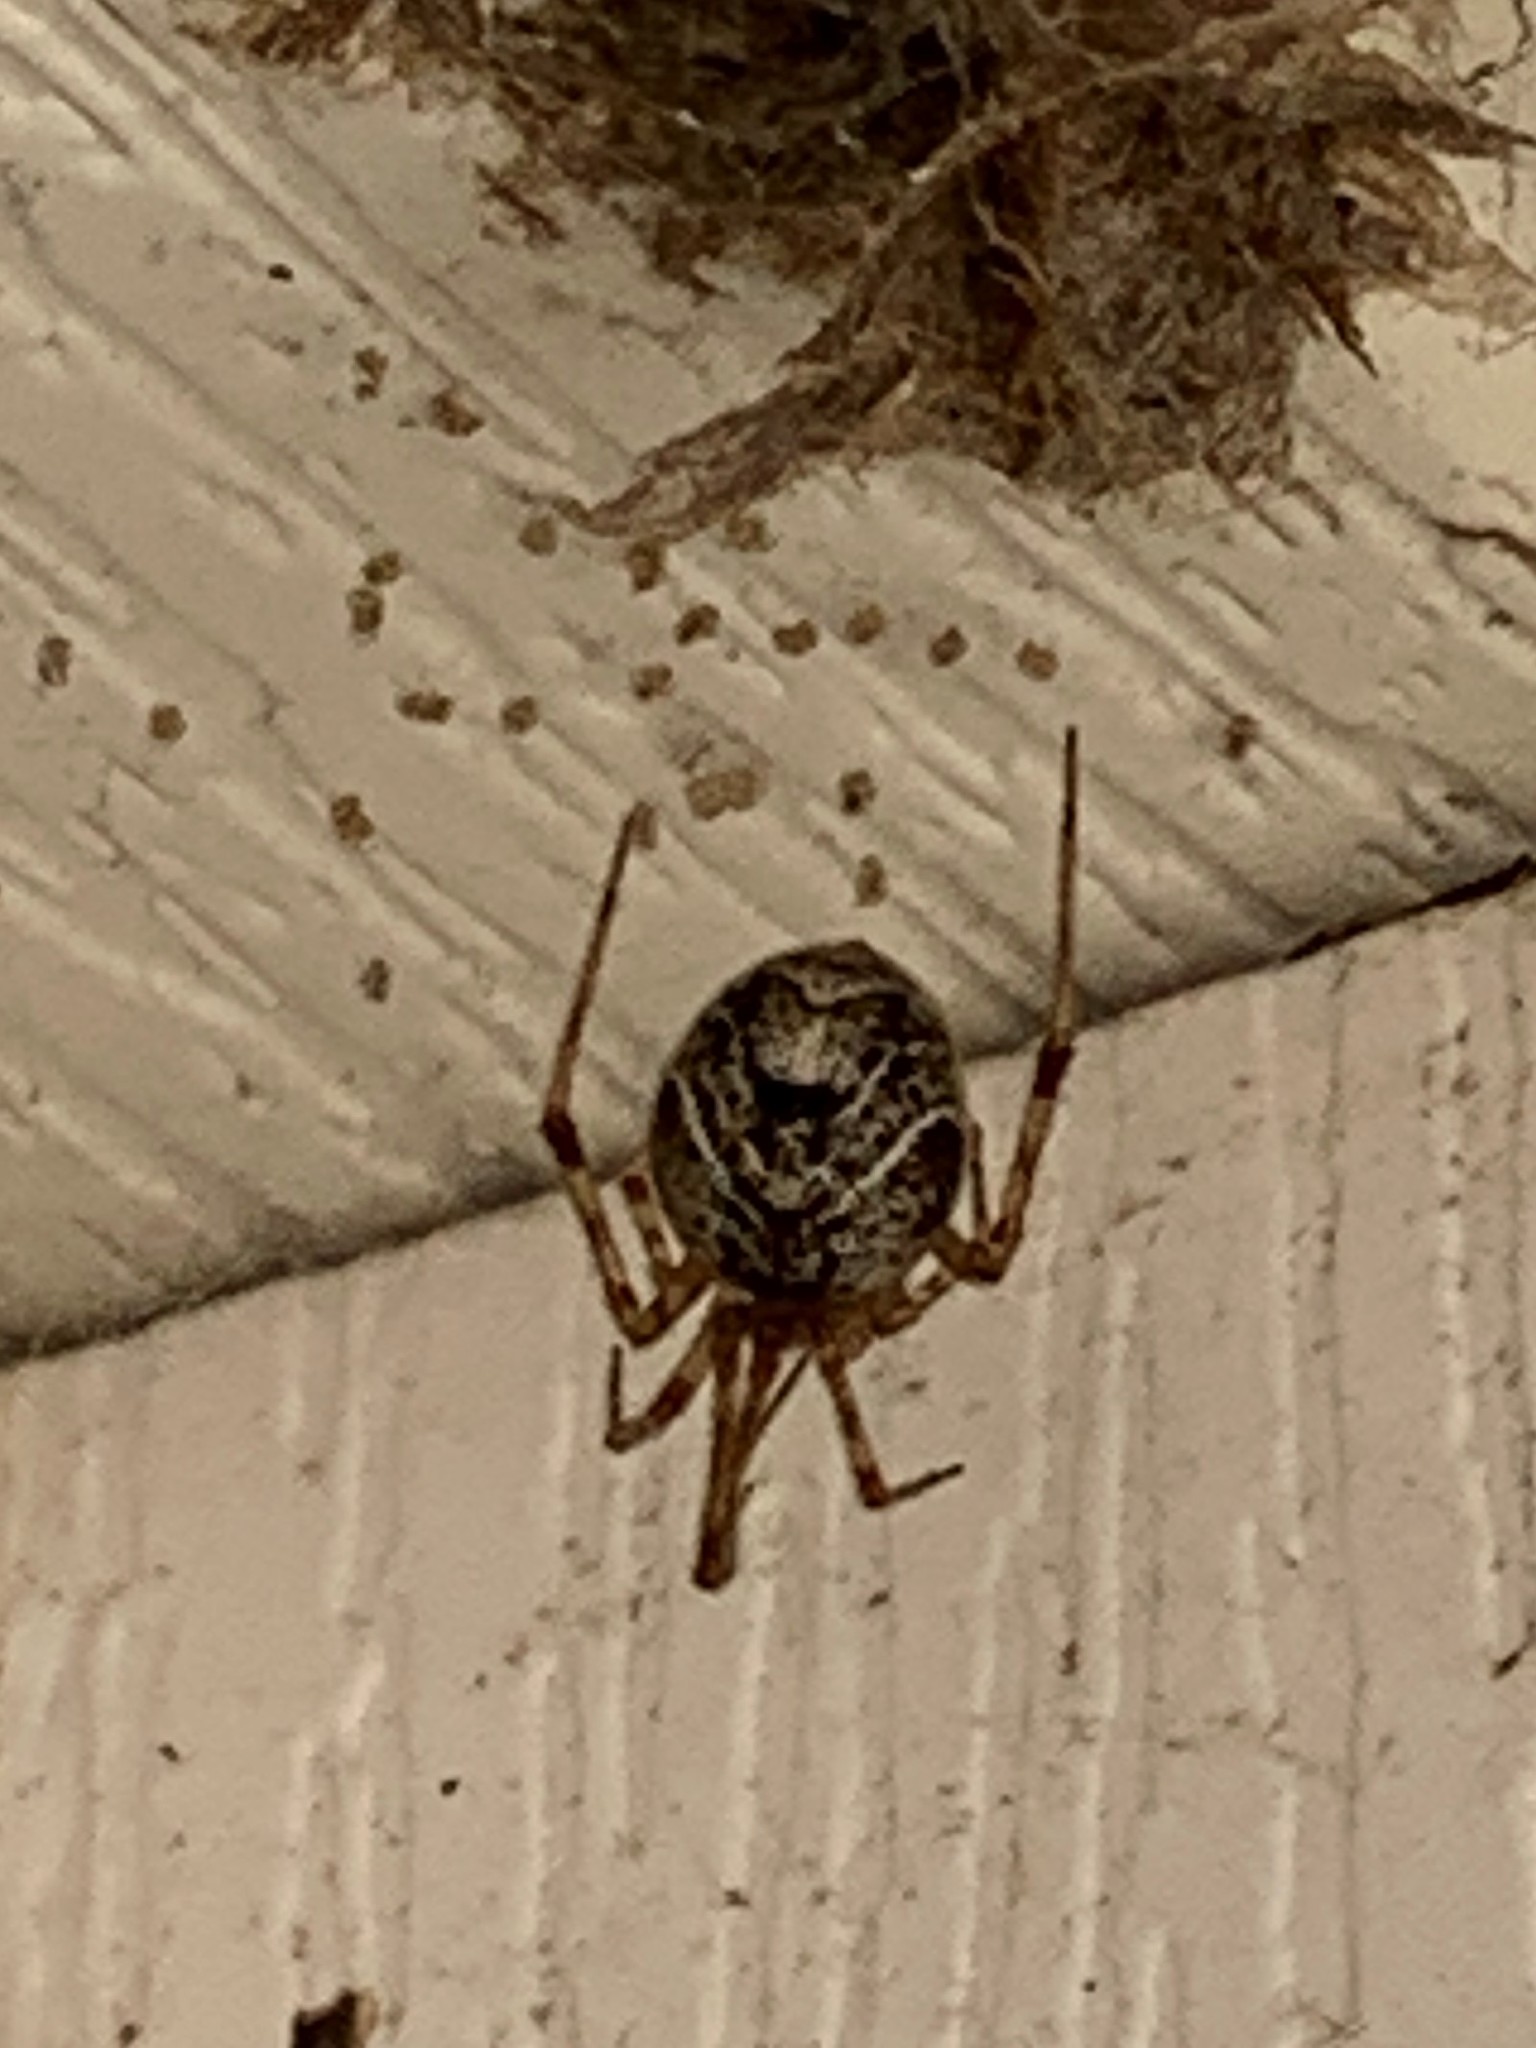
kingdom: Animalia
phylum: Arthropoda
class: Arachnida
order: Araneae
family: Theridiidae
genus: Parasteatoda
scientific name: Parasteatoda tepidariorum
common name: Common house spider
